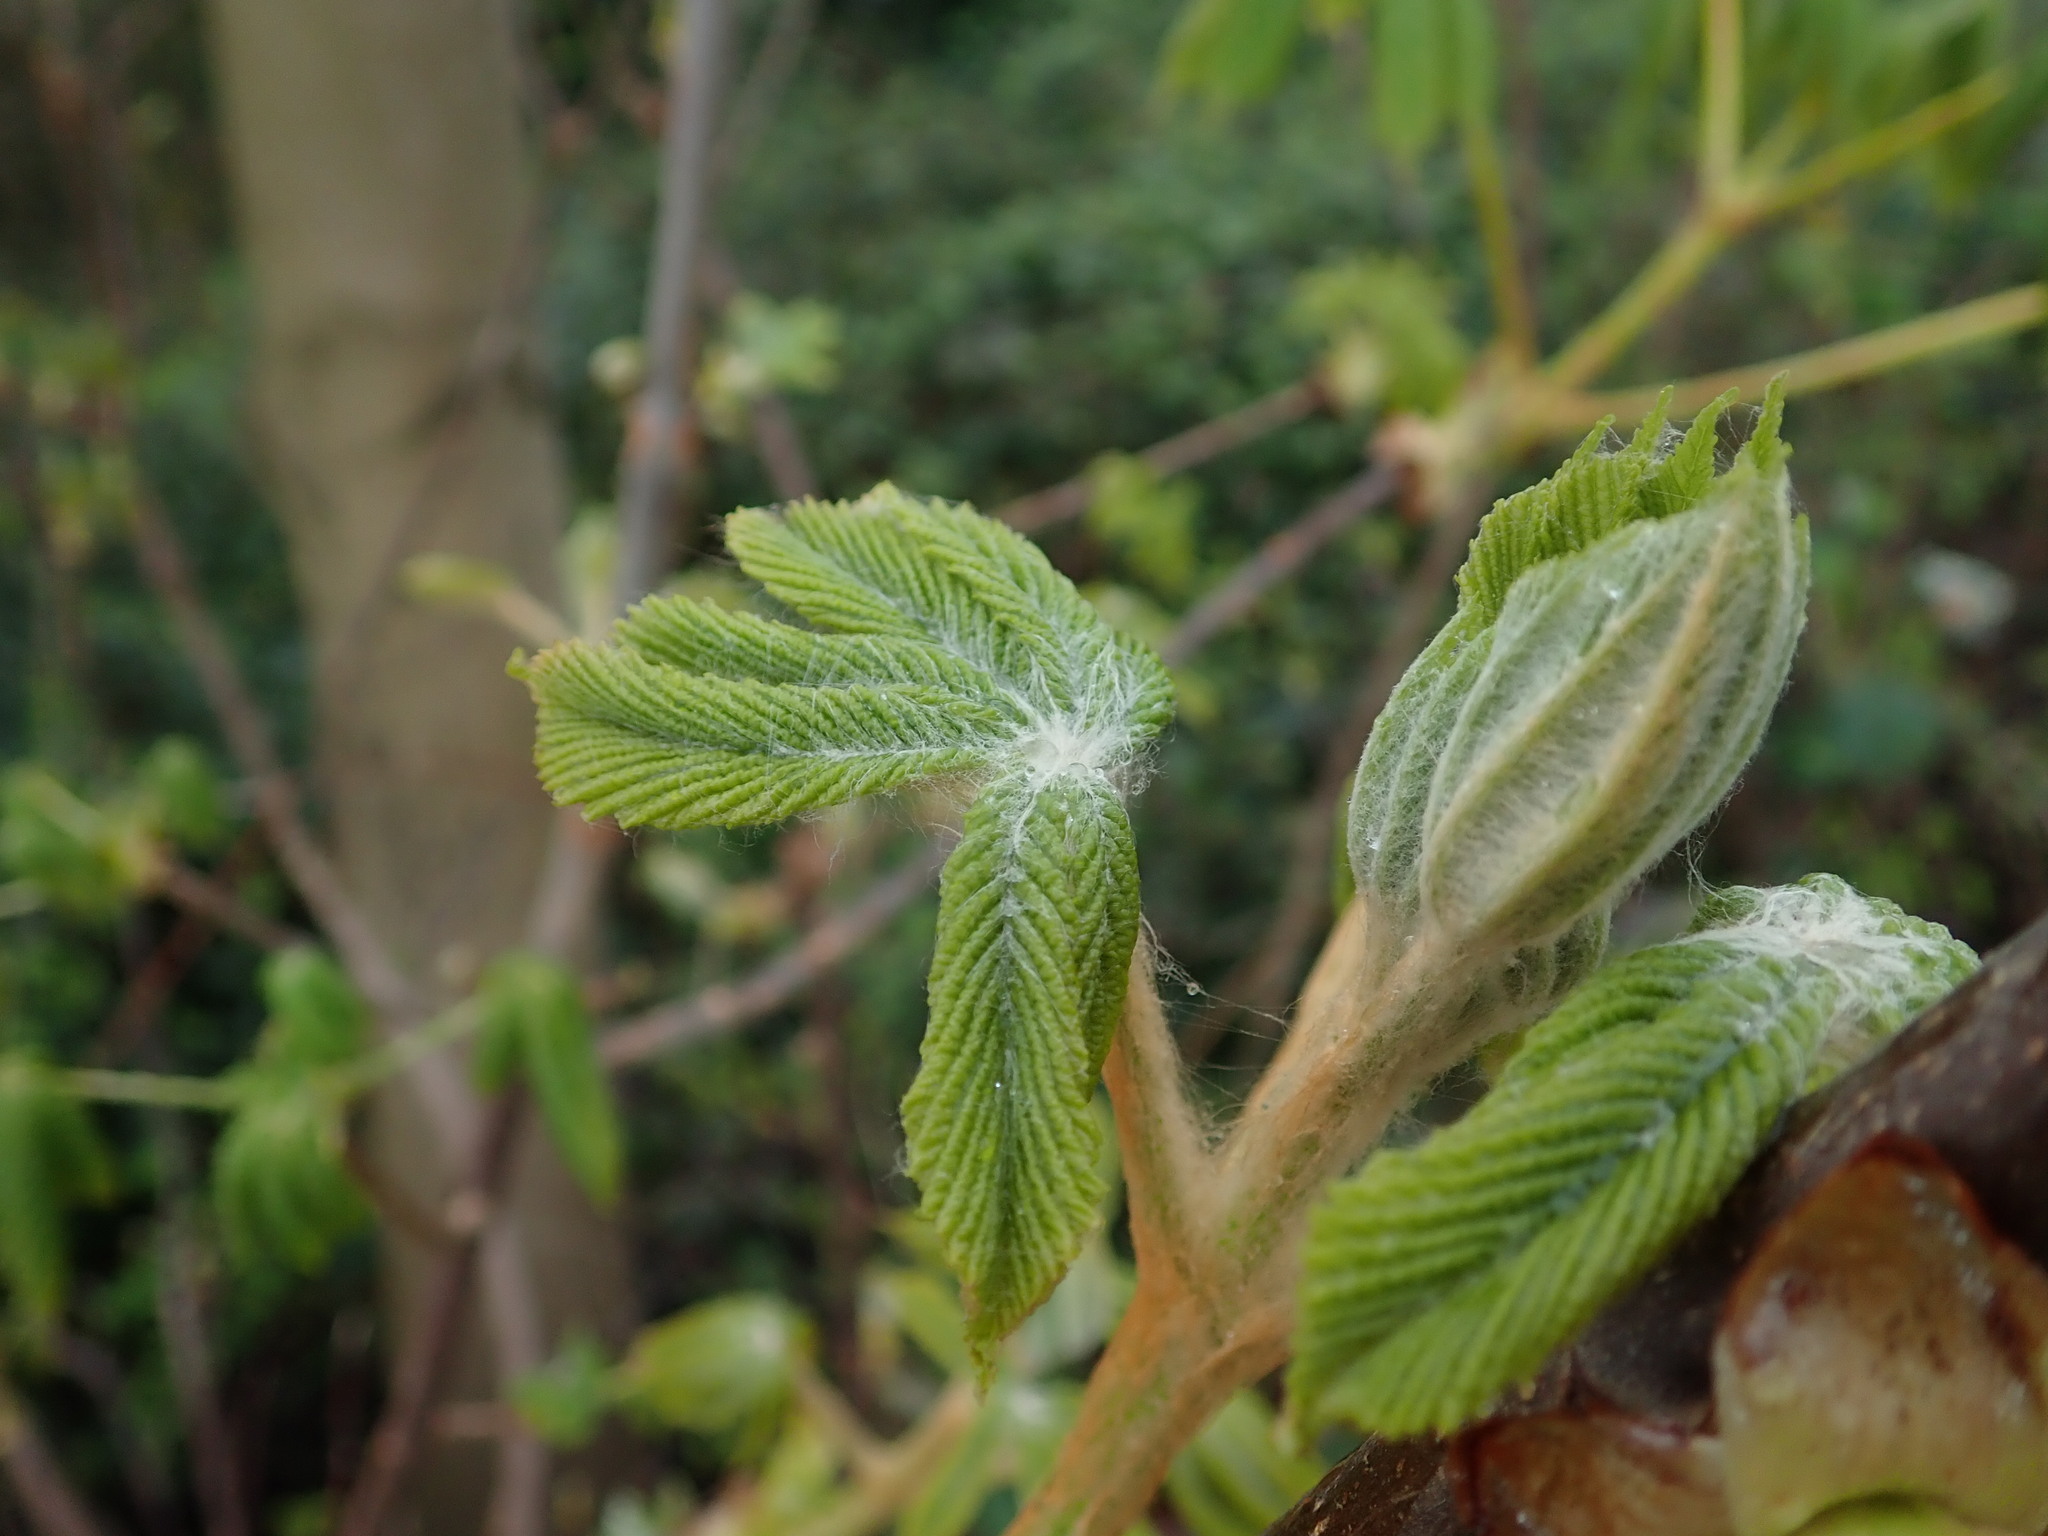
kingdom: Plantae
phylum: Tracheophyta
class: Magnoliopsida
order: Sapindales
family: Sapindaceae
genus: Aesculus
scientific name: Aesculus hippocastanum
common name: Horse-chestnut
